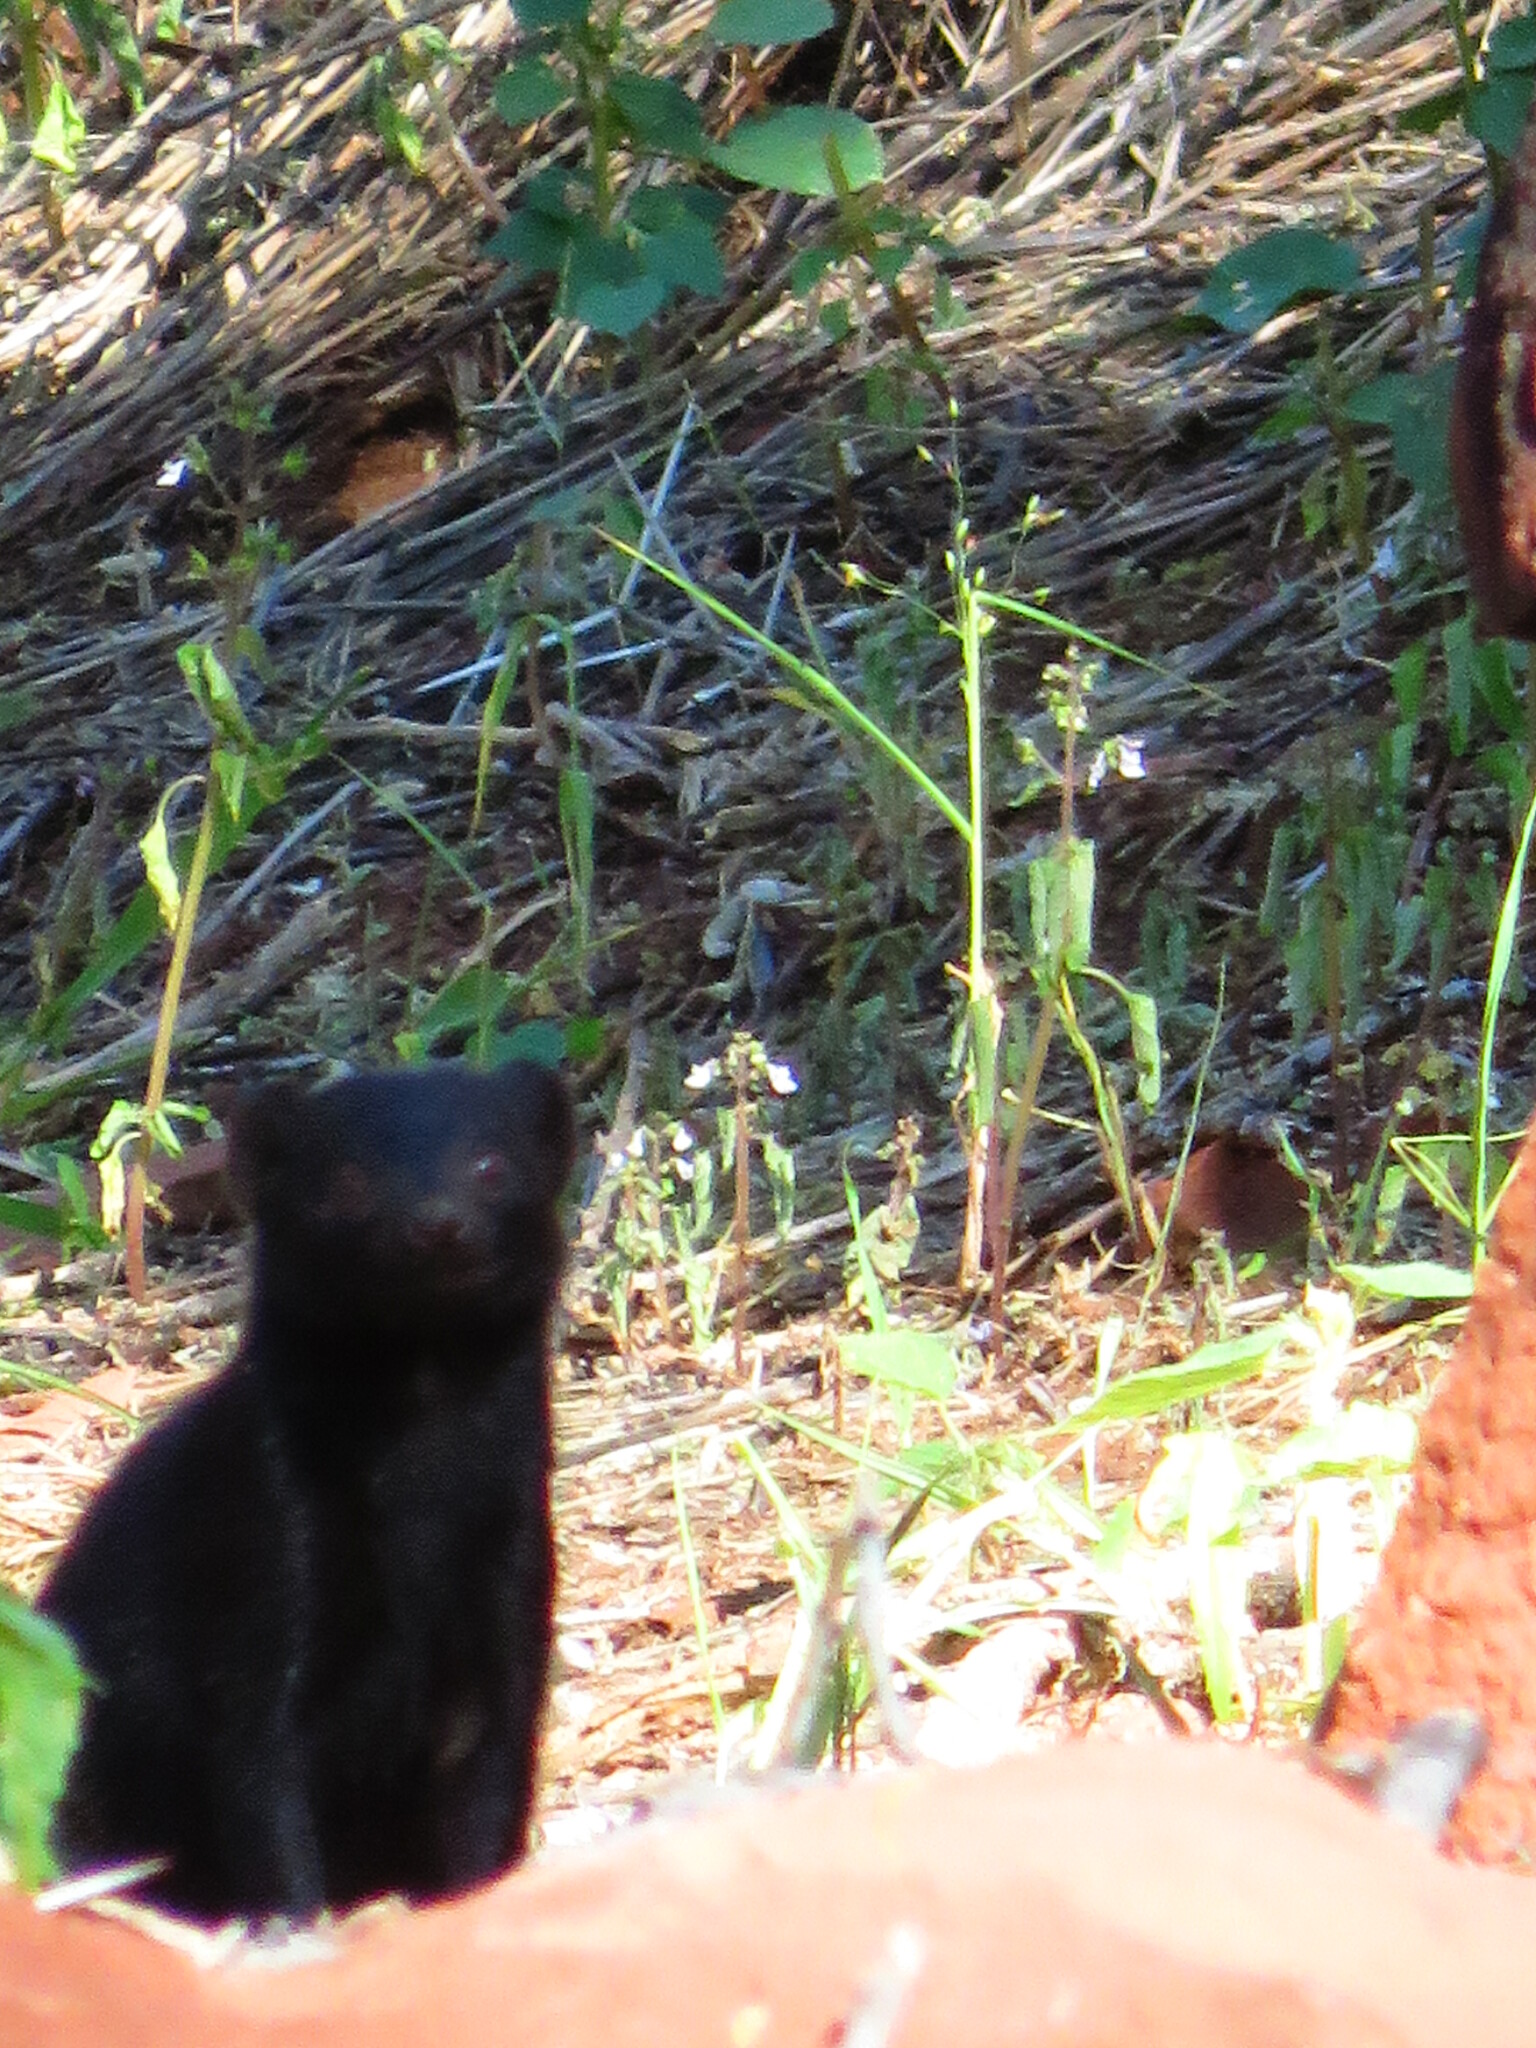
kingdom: Animalia
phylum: Chordata
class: Mammalia
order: Carnivora
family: Herpestidae
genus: Helogale
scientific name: Helogale parvula
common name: Common dwarf mongoose
